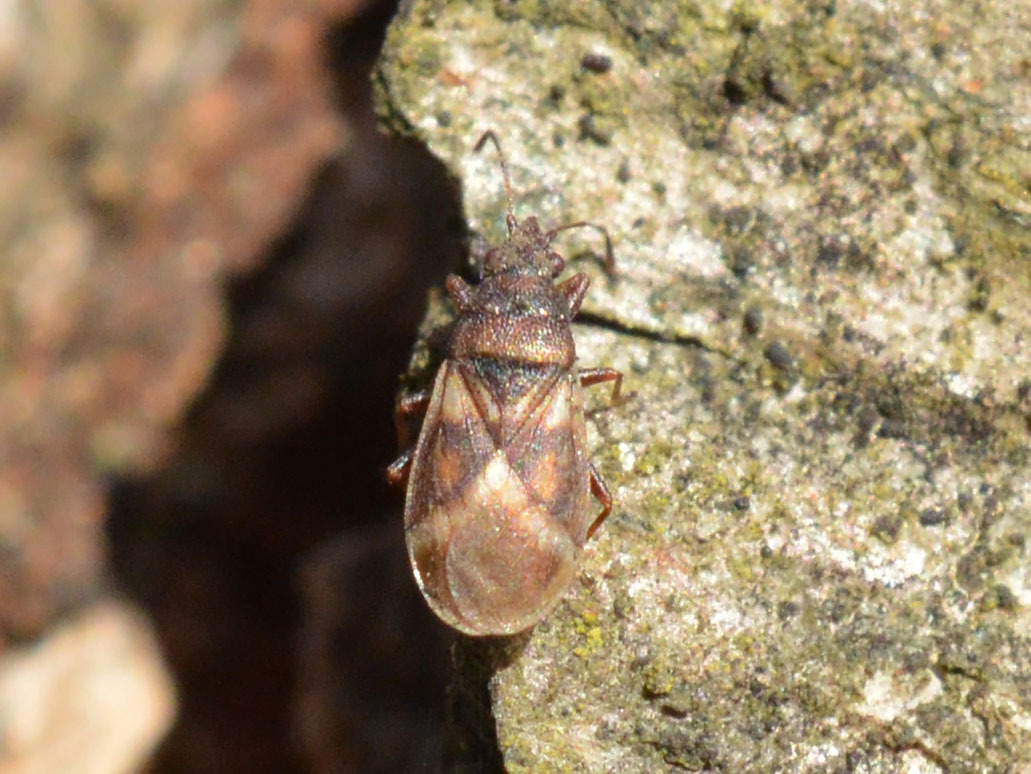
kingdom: Animalia
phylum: Arthropoda
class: Insecta
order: Hemiptera
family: Oxycarenidae
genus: Oxycarenus
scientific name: Oxycarenus modestus
